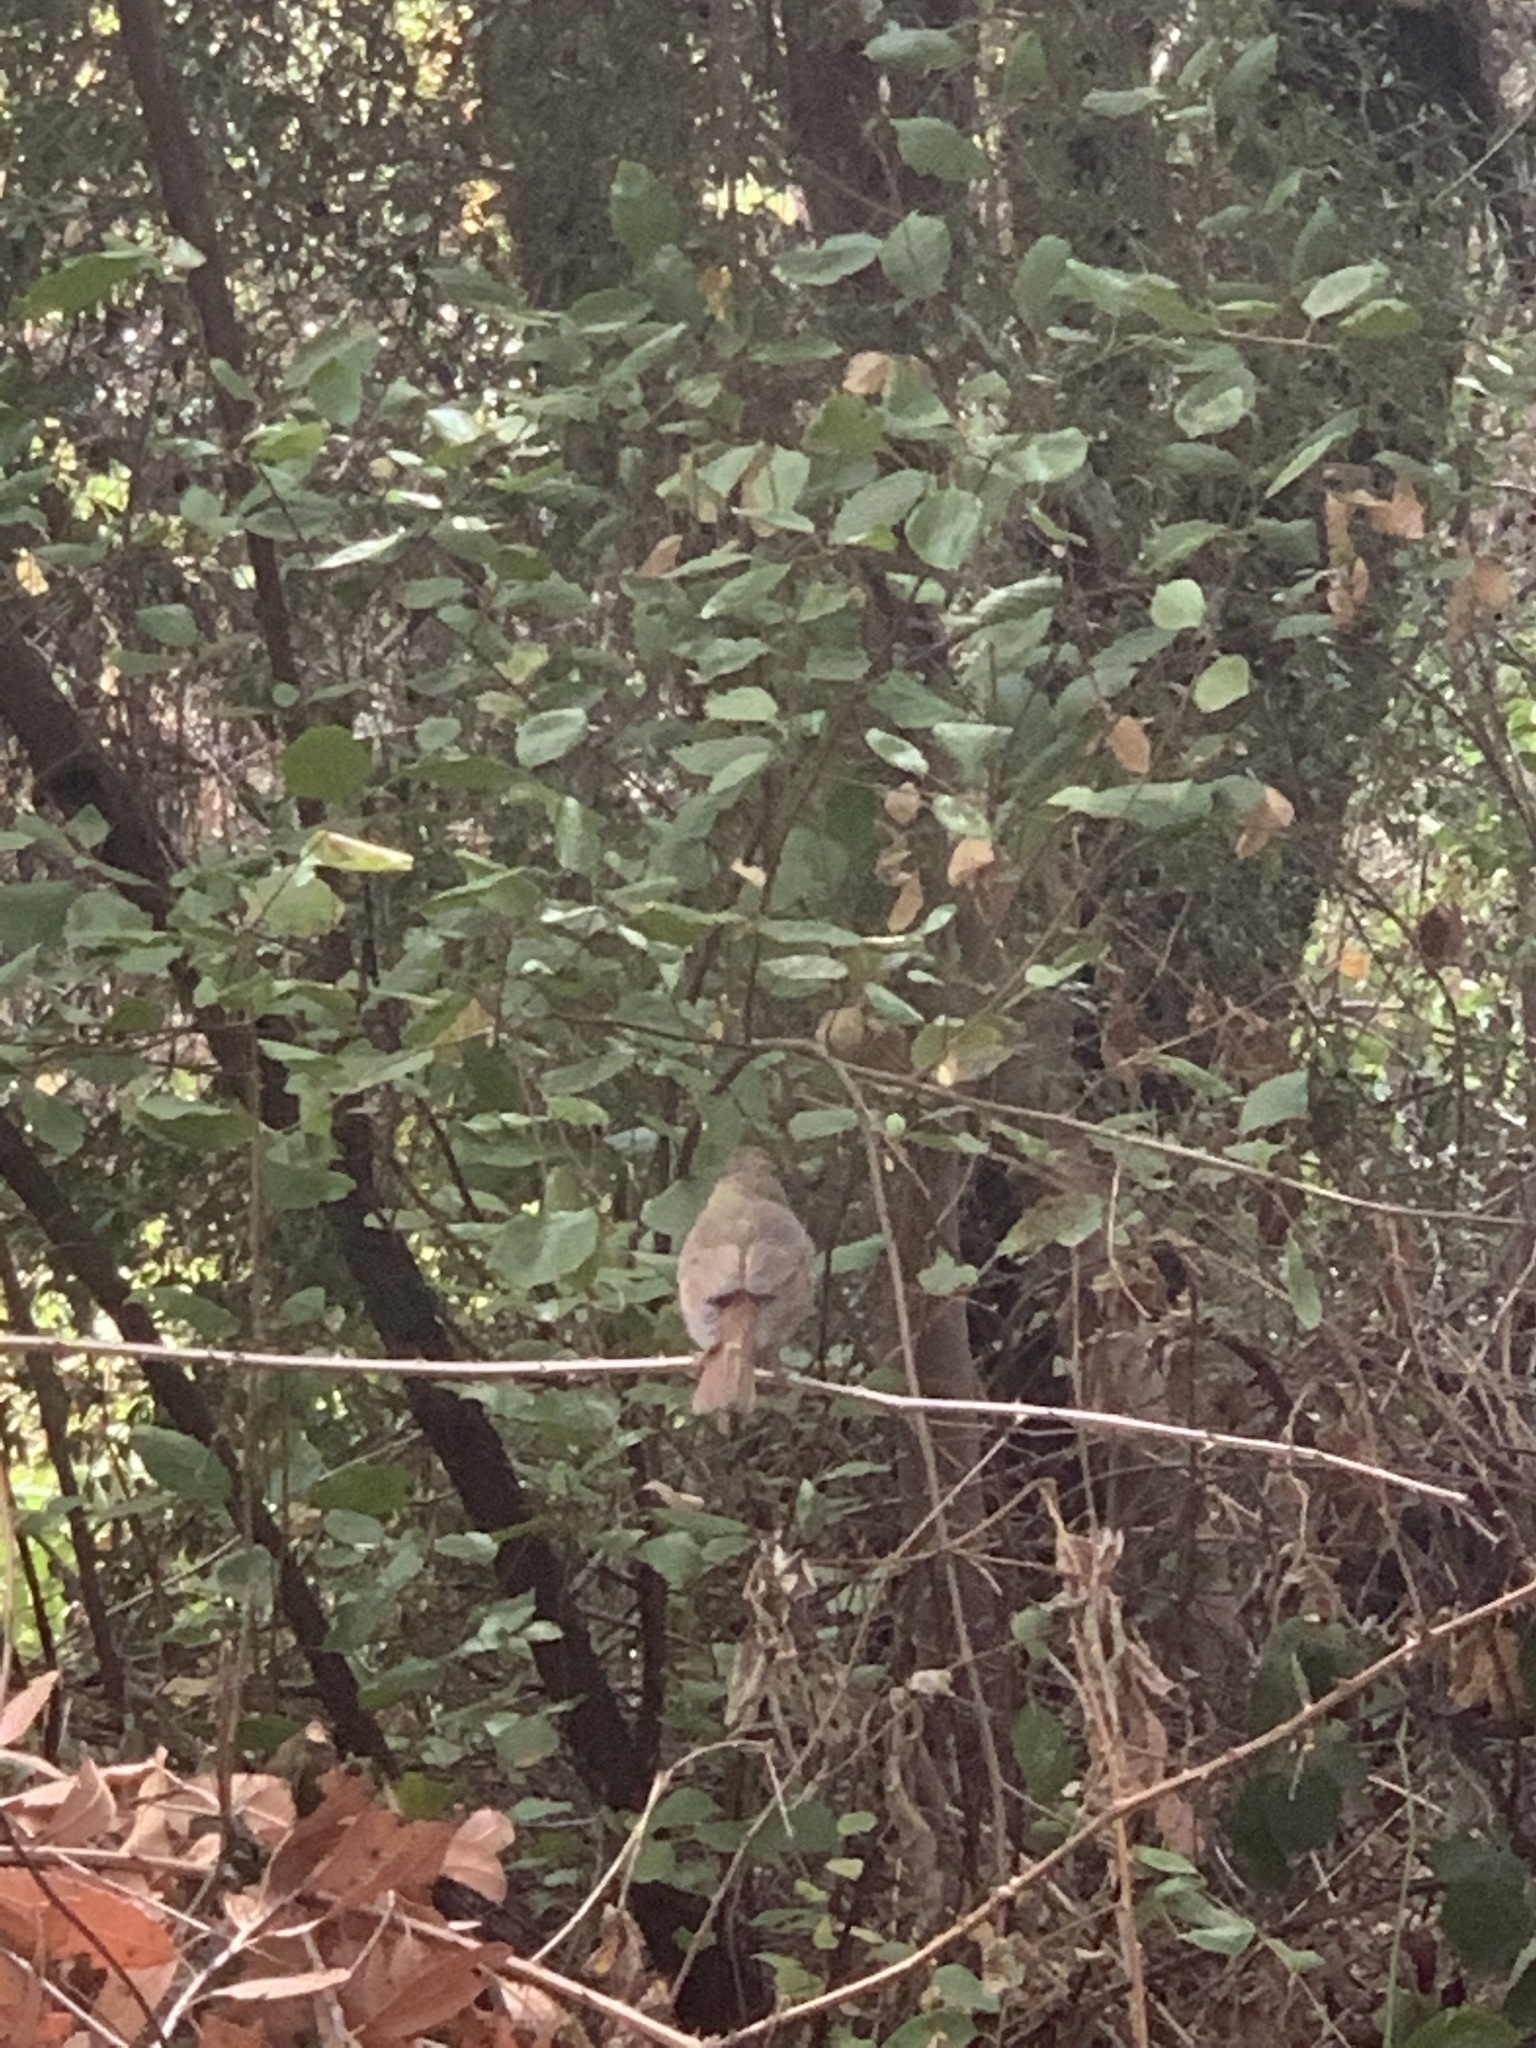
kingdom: Animalia
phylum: Chordata
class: Aves
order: Passeriformes
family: Turdidae
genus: Catharus
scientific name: Catharus guttatus
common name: Hermit thrush
